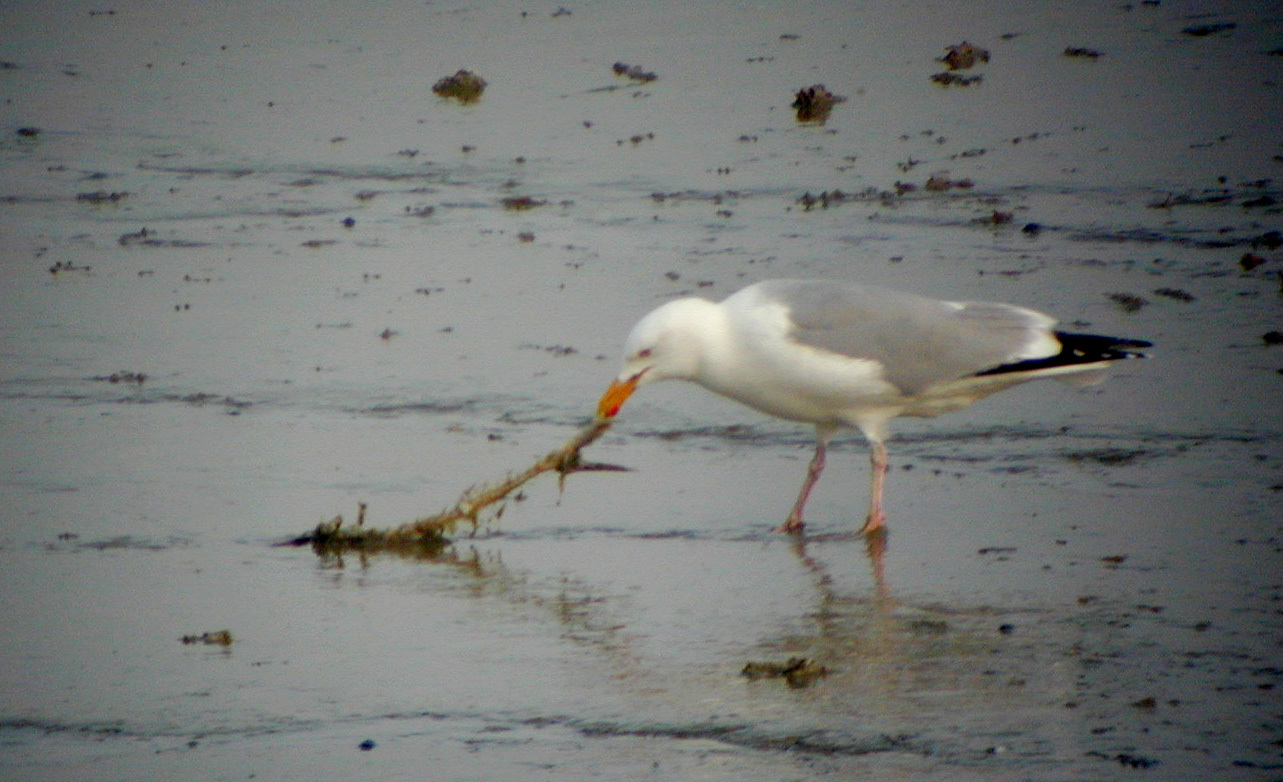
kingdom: Animalia
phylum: Chordata
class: Aves
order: Charadriiformes
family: Laridae
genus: Larus
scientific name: Larus argentatus
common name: Herring gull
